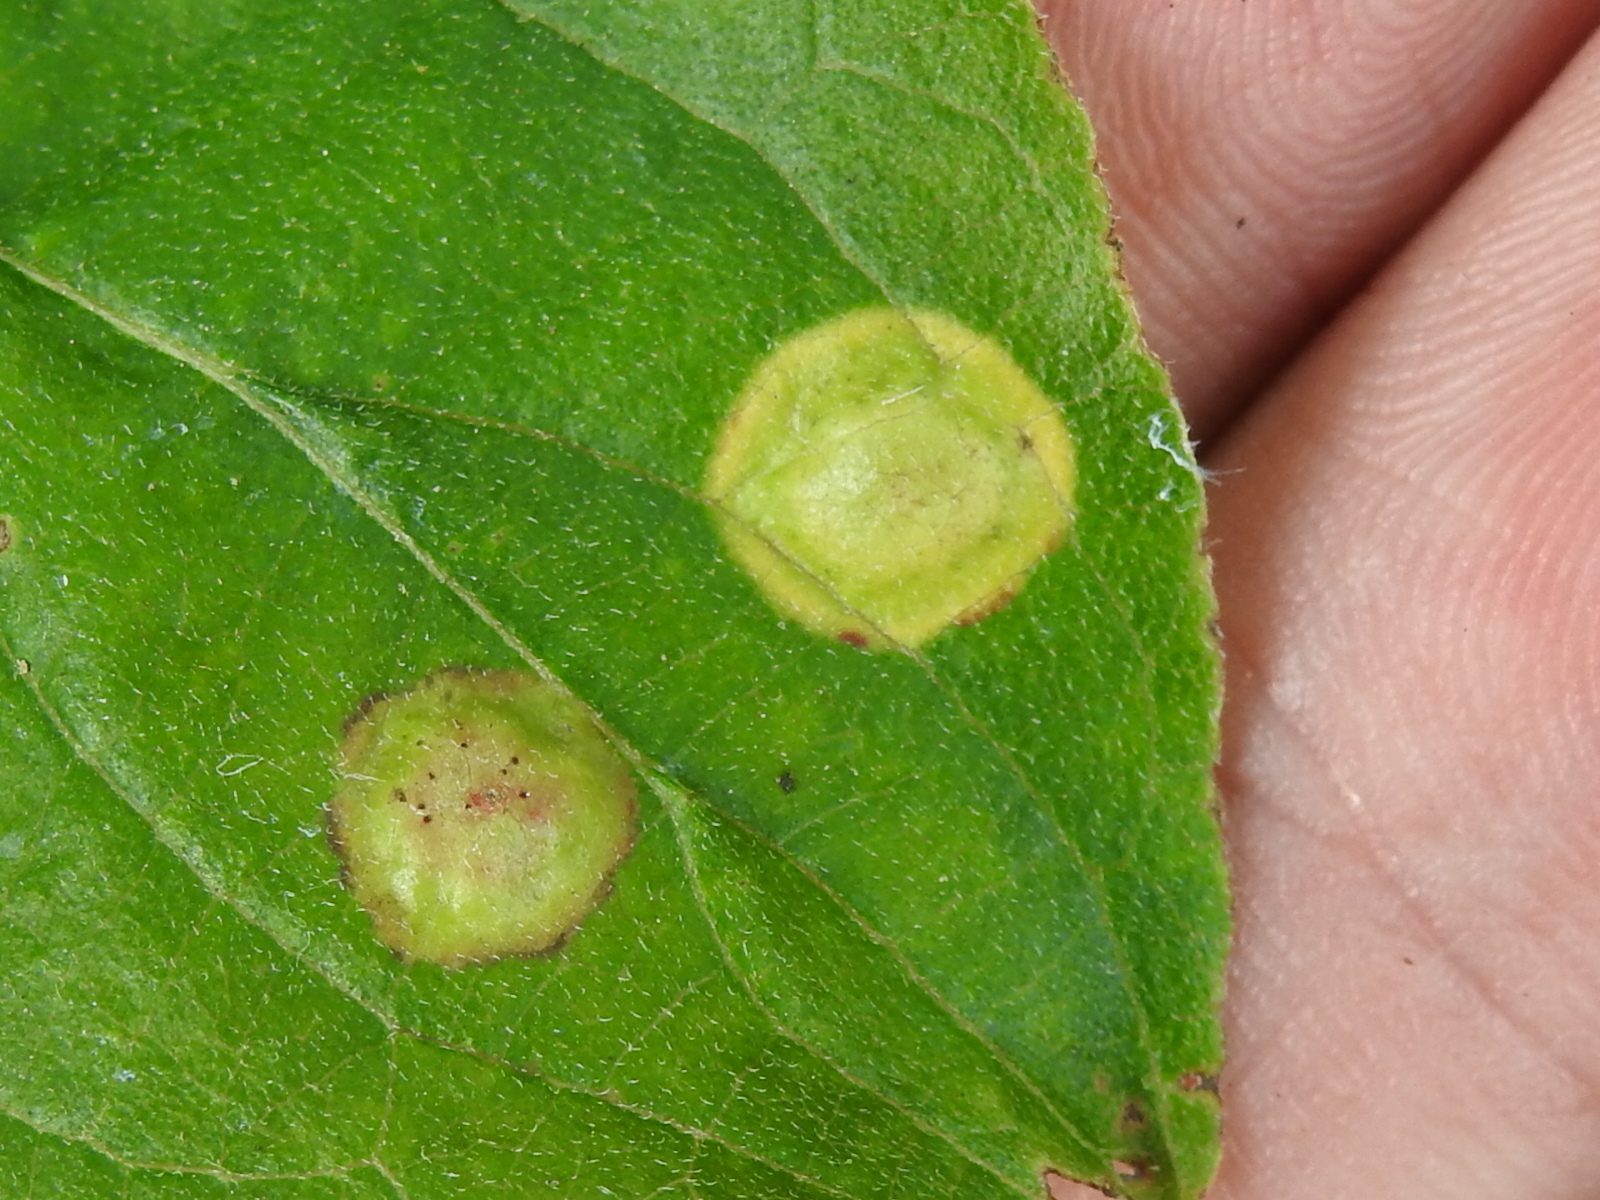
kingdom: Animalia
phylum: Arthropoda
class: Insecta
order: Diptera
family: Cecidomyiidae
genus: Parallelodiplosis
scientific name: Parallelodiplosis subtruncata
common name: Dogwood eyespot gall midge
